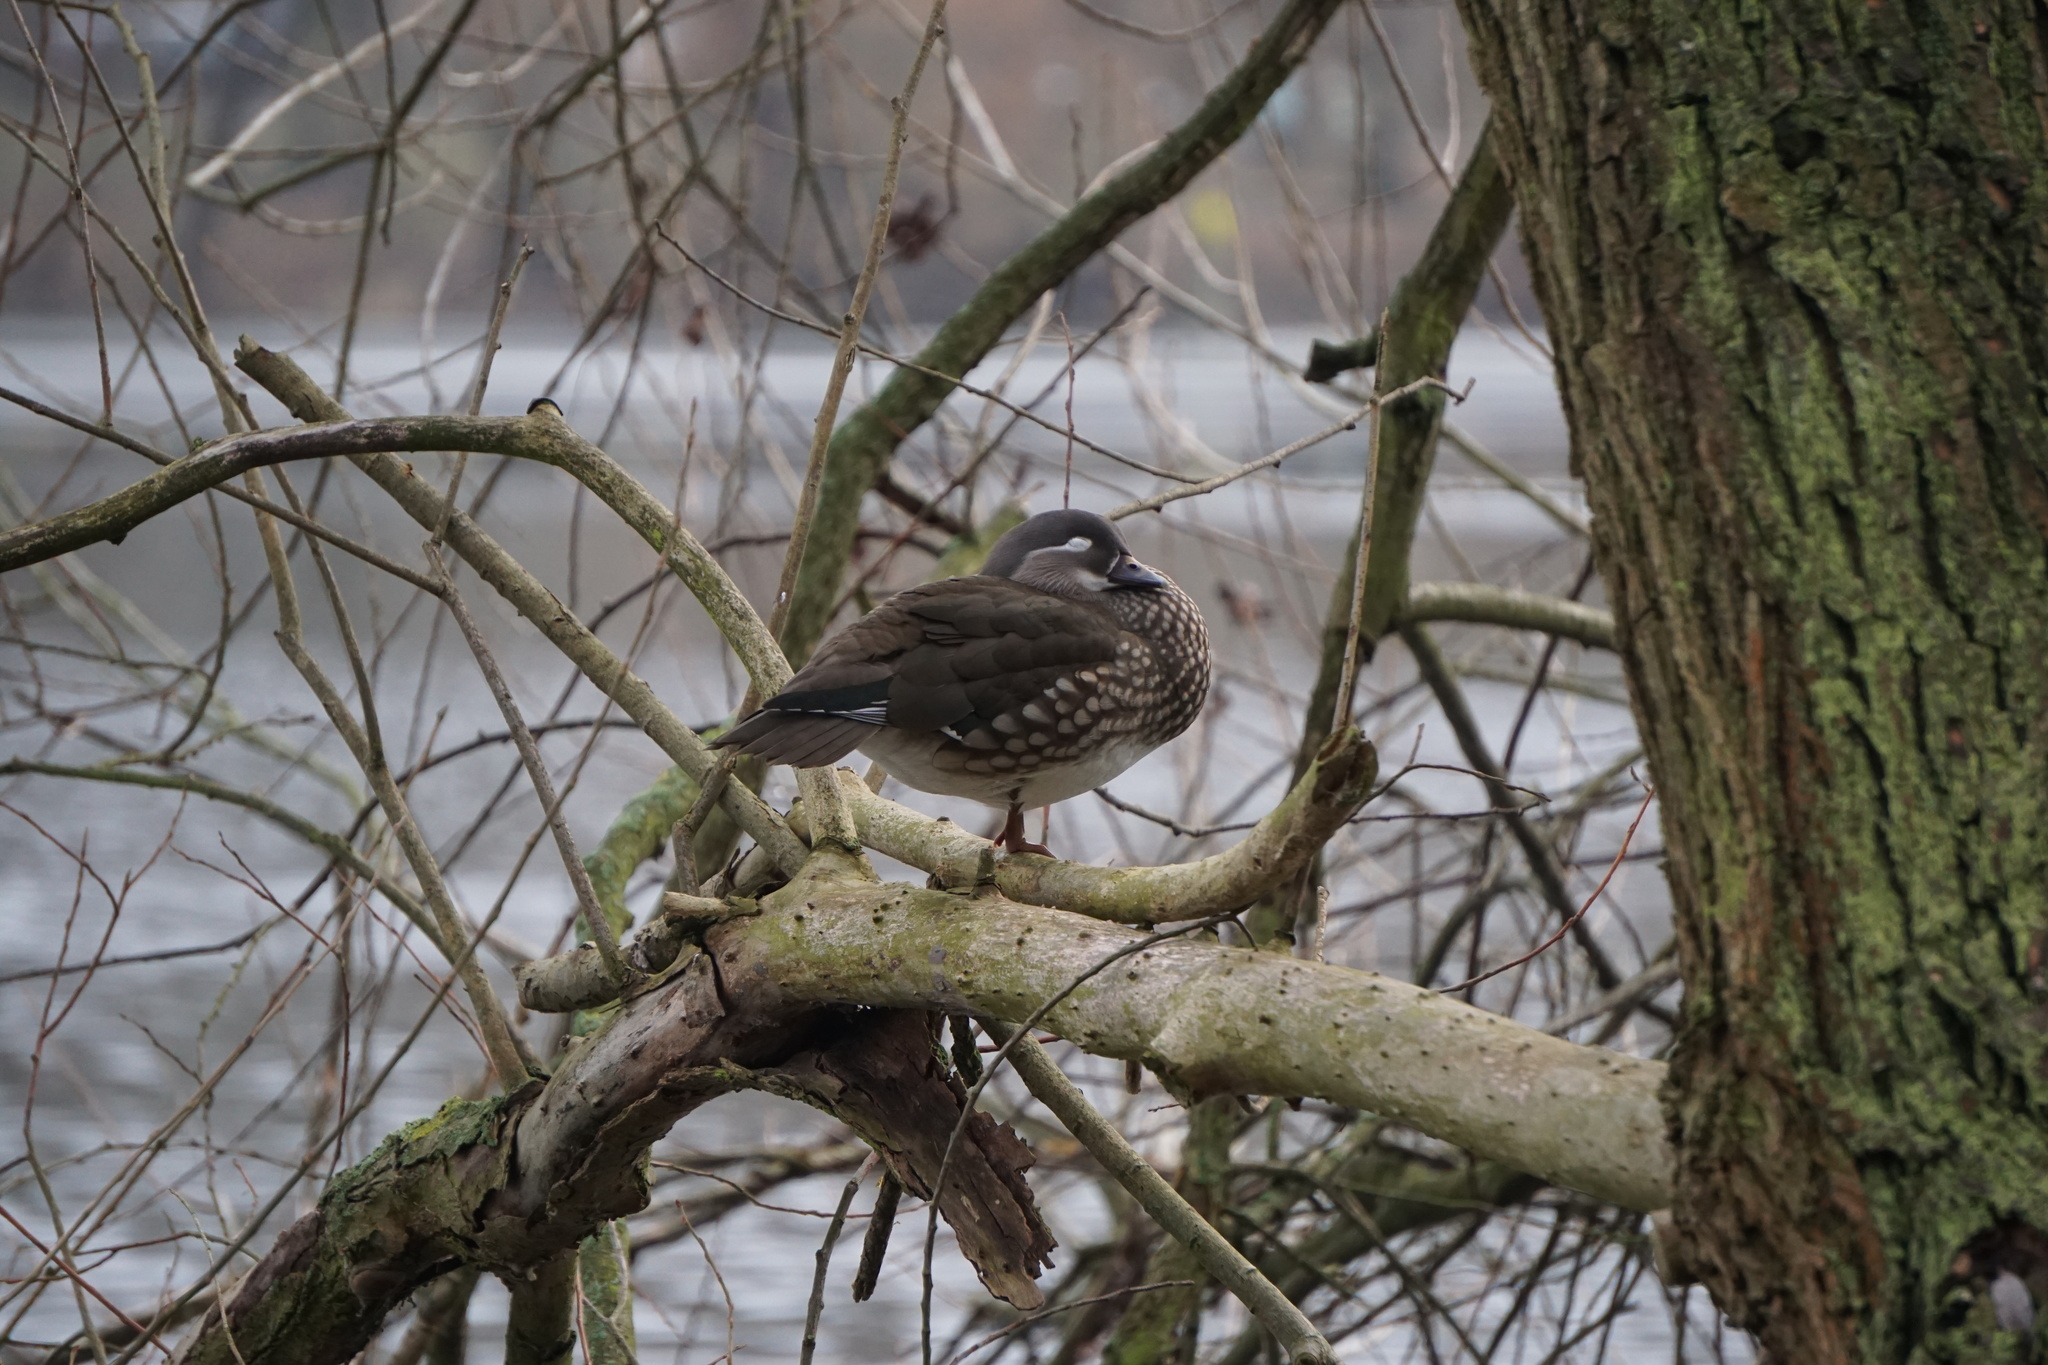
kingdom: Animalia
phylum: Chordata
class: Aves
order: Anseriformes
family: Anatidae
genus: Aix
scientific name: Aix galericulata
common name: Mandarin duck
